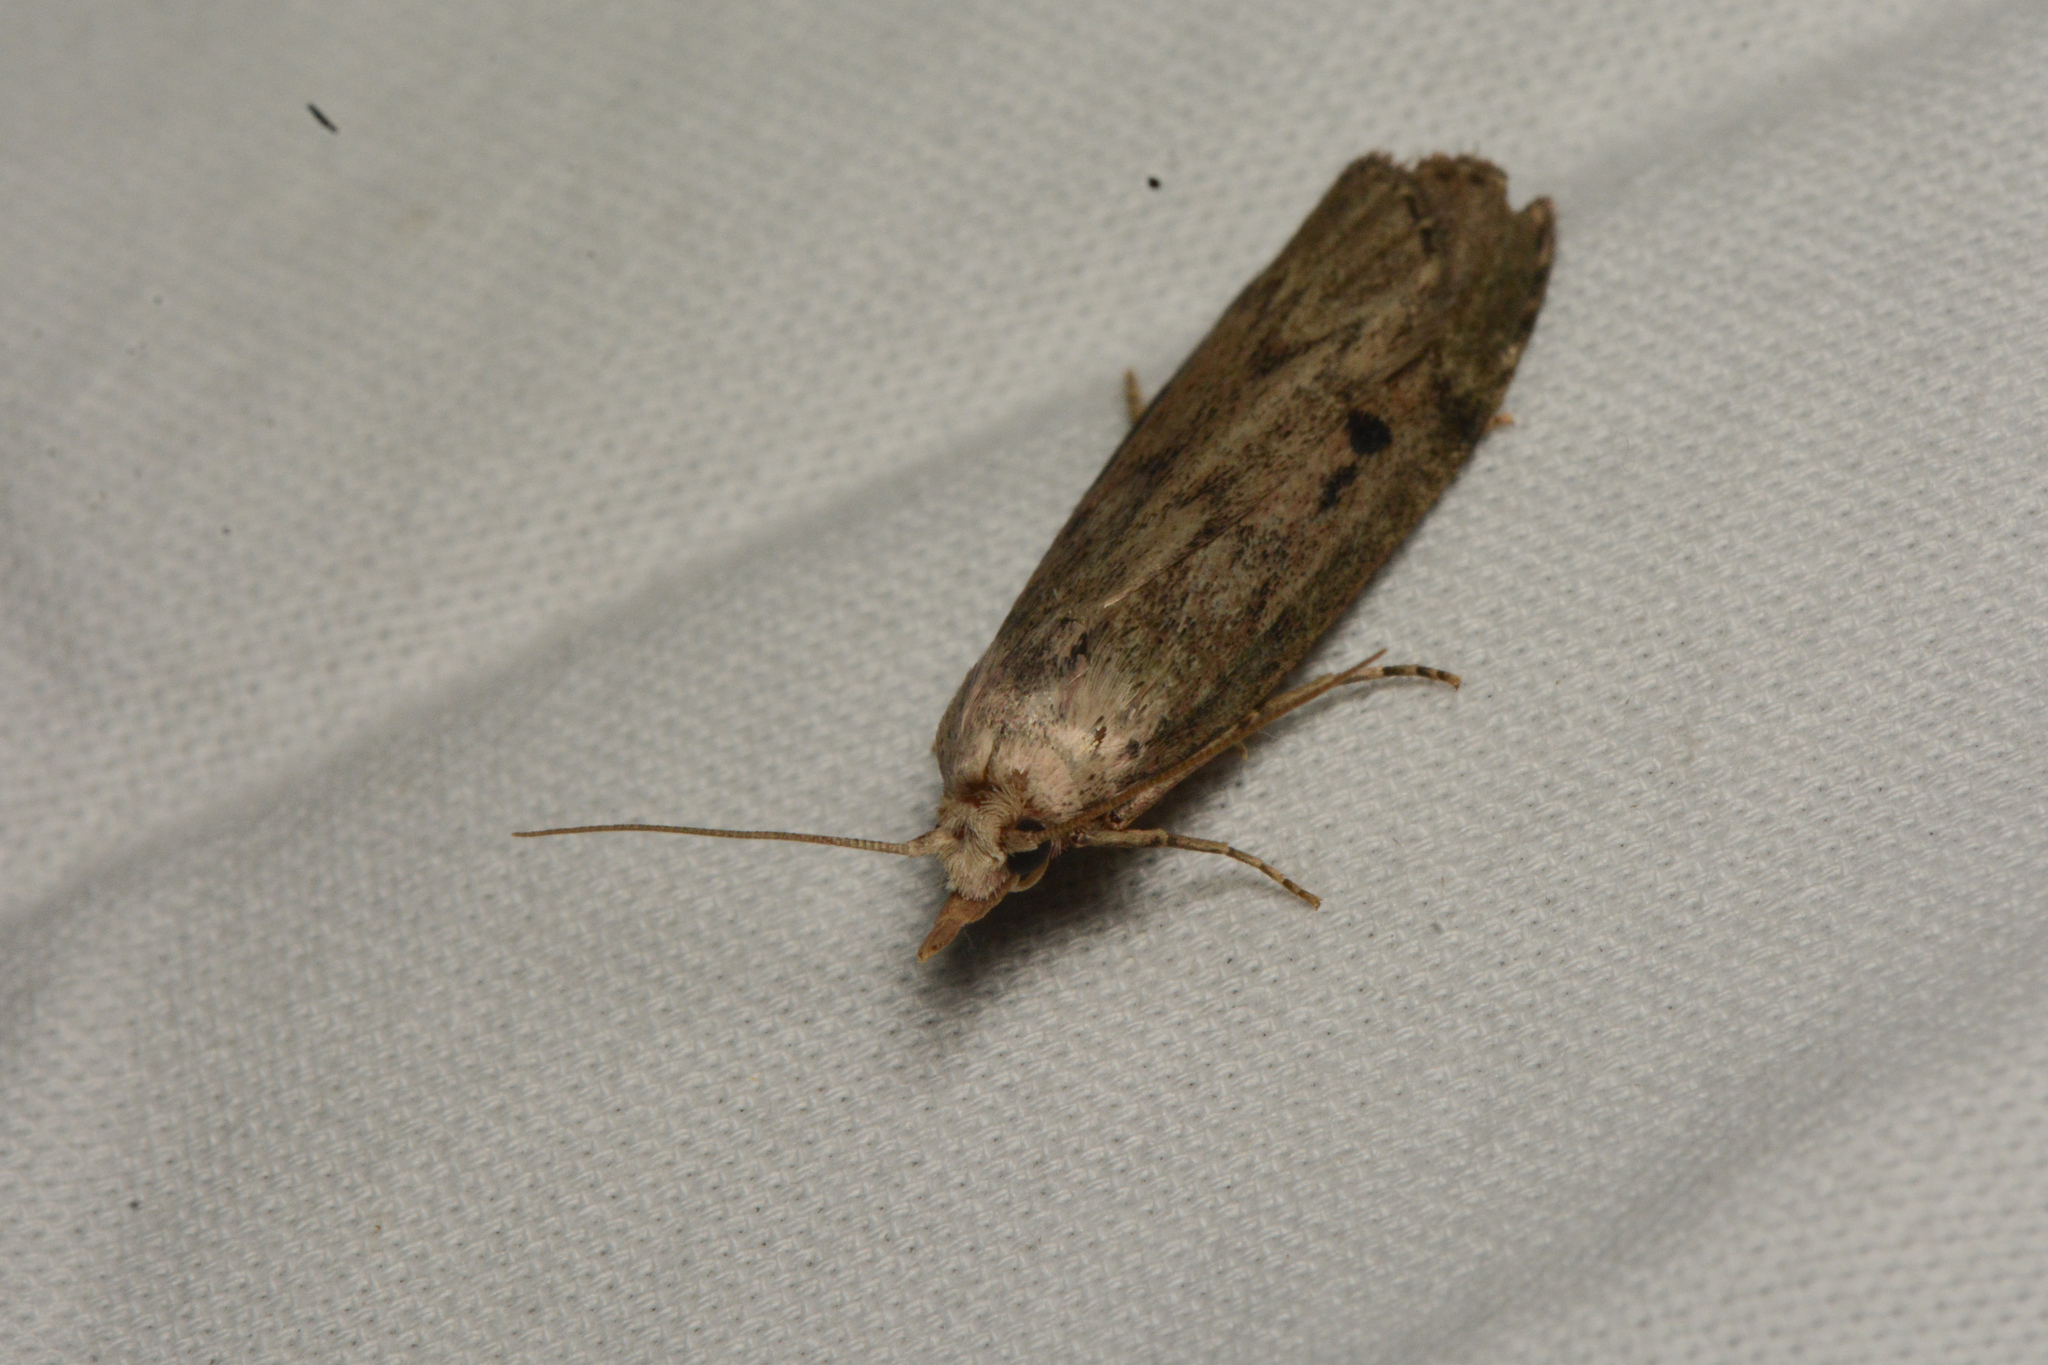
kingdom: Animalia
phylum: Arthropoda
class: Insecta
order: Lepidoptera
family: Pyralidae
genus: Aphomia
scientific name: Aphomia sociella
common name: Bee moth
